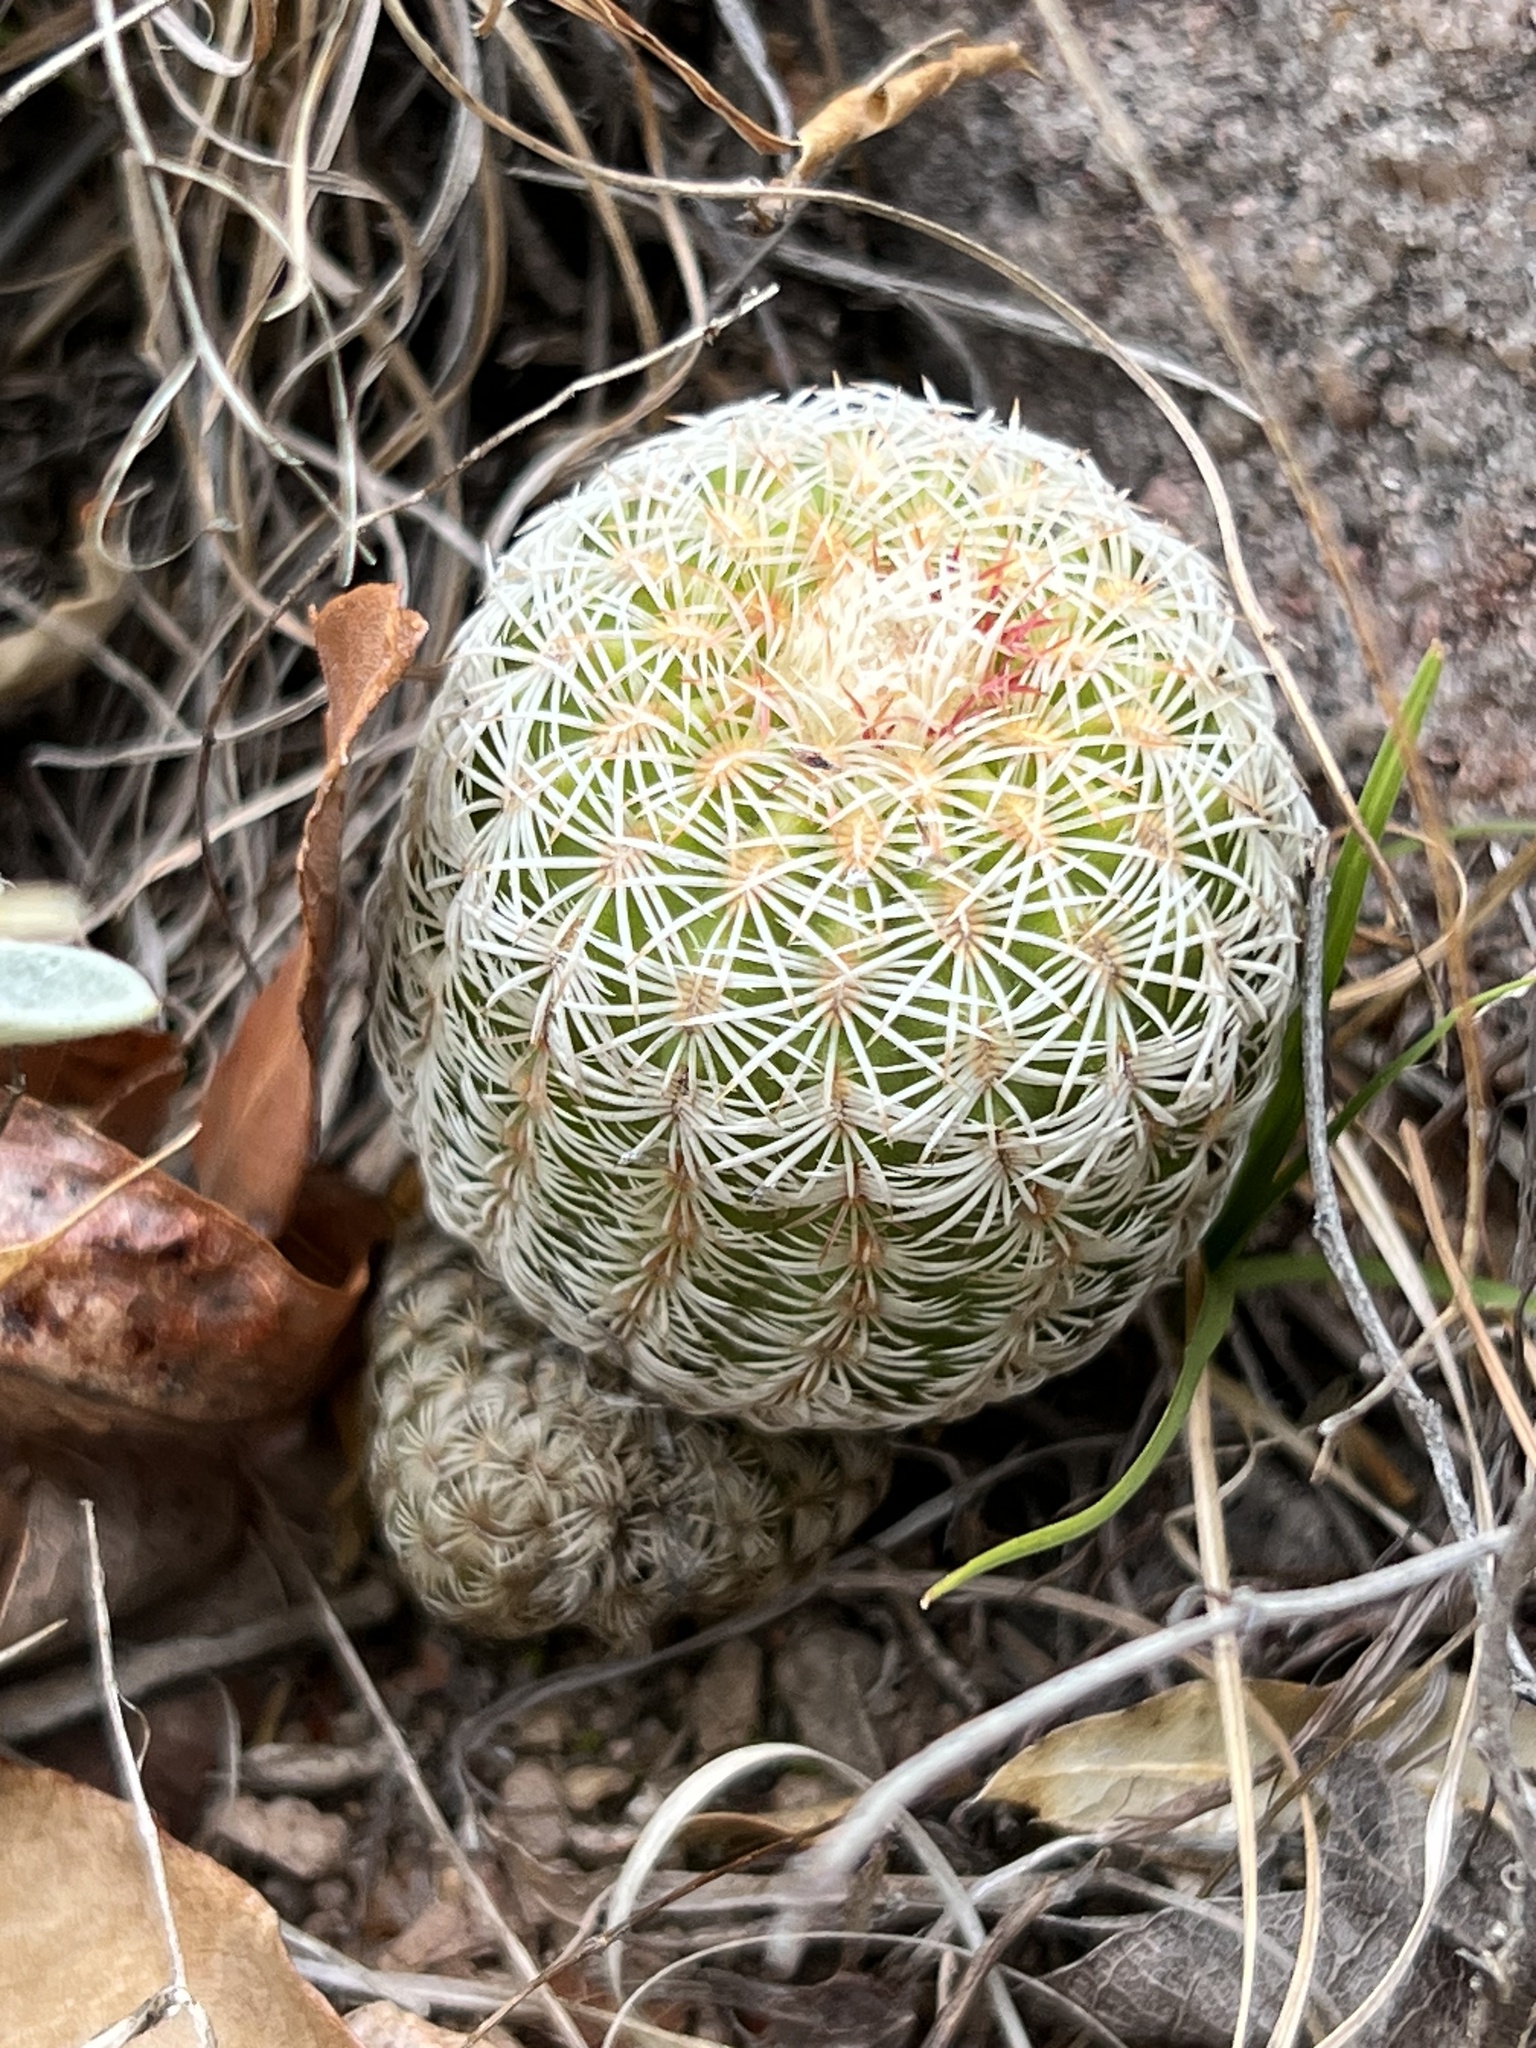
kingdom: Plantae
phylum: Tracheophyta
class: Magnoliopsida
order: Caryophyllales
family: Cactaceae
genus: Echinocereus
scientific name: Echinocereus rigidissimus
